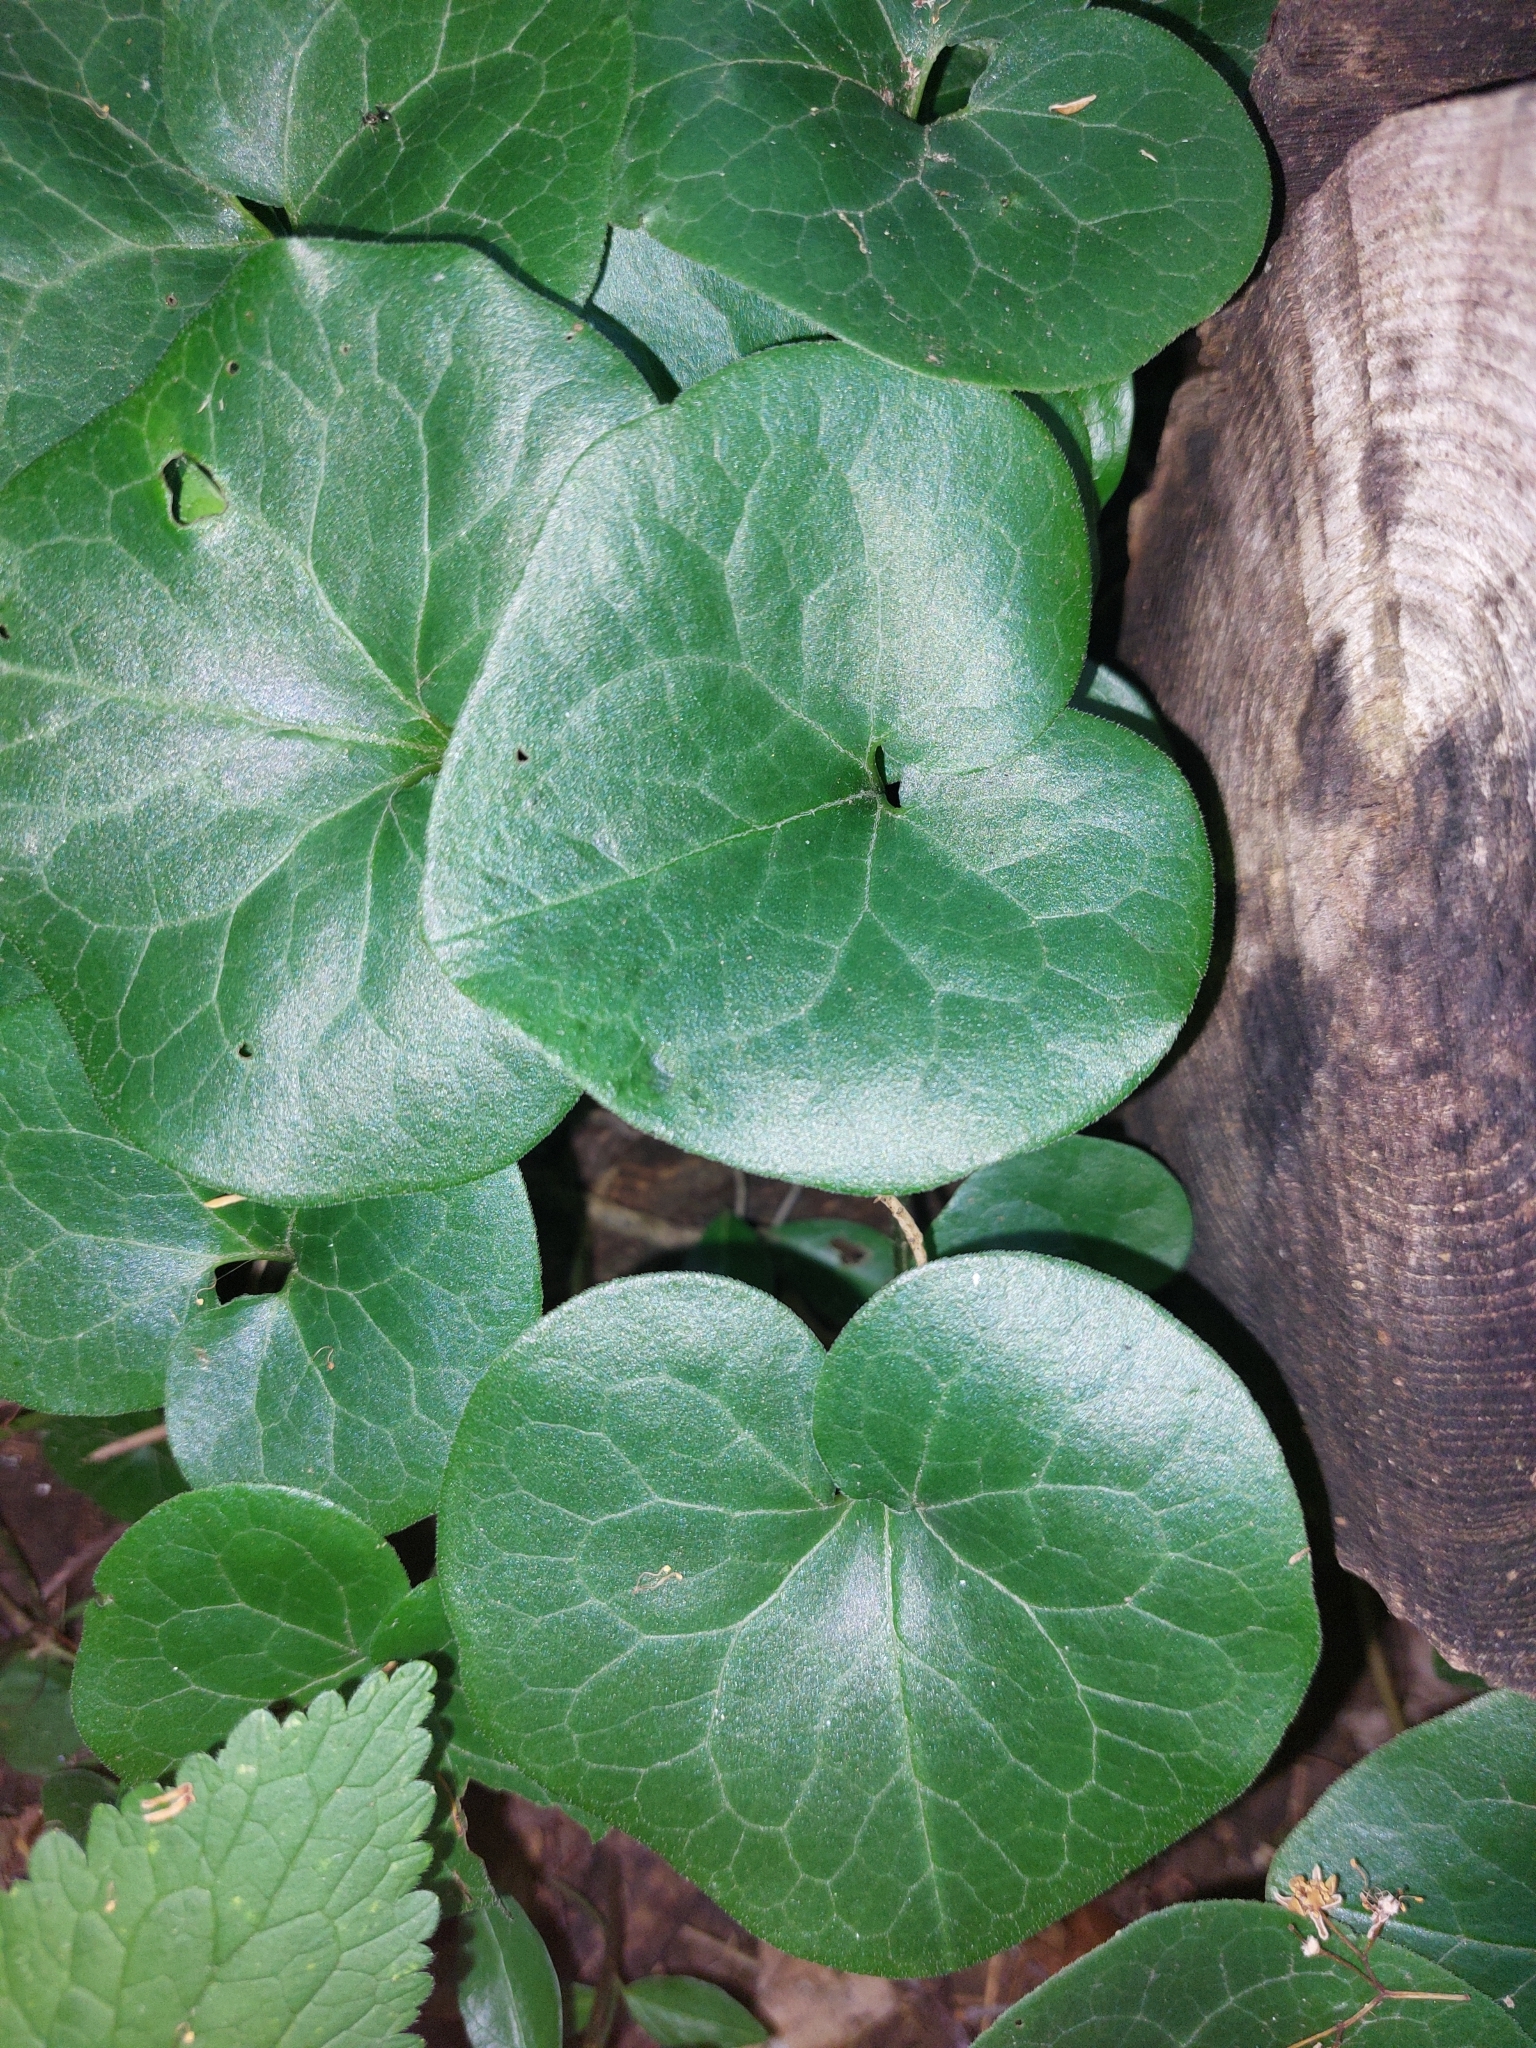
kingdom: Plantae
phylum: Tracheophyta
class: Magnoliopsida
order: Piperales
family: Aristolochiaceae
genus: Asarum
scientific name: Asarum europaeum
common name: Asarabacca
